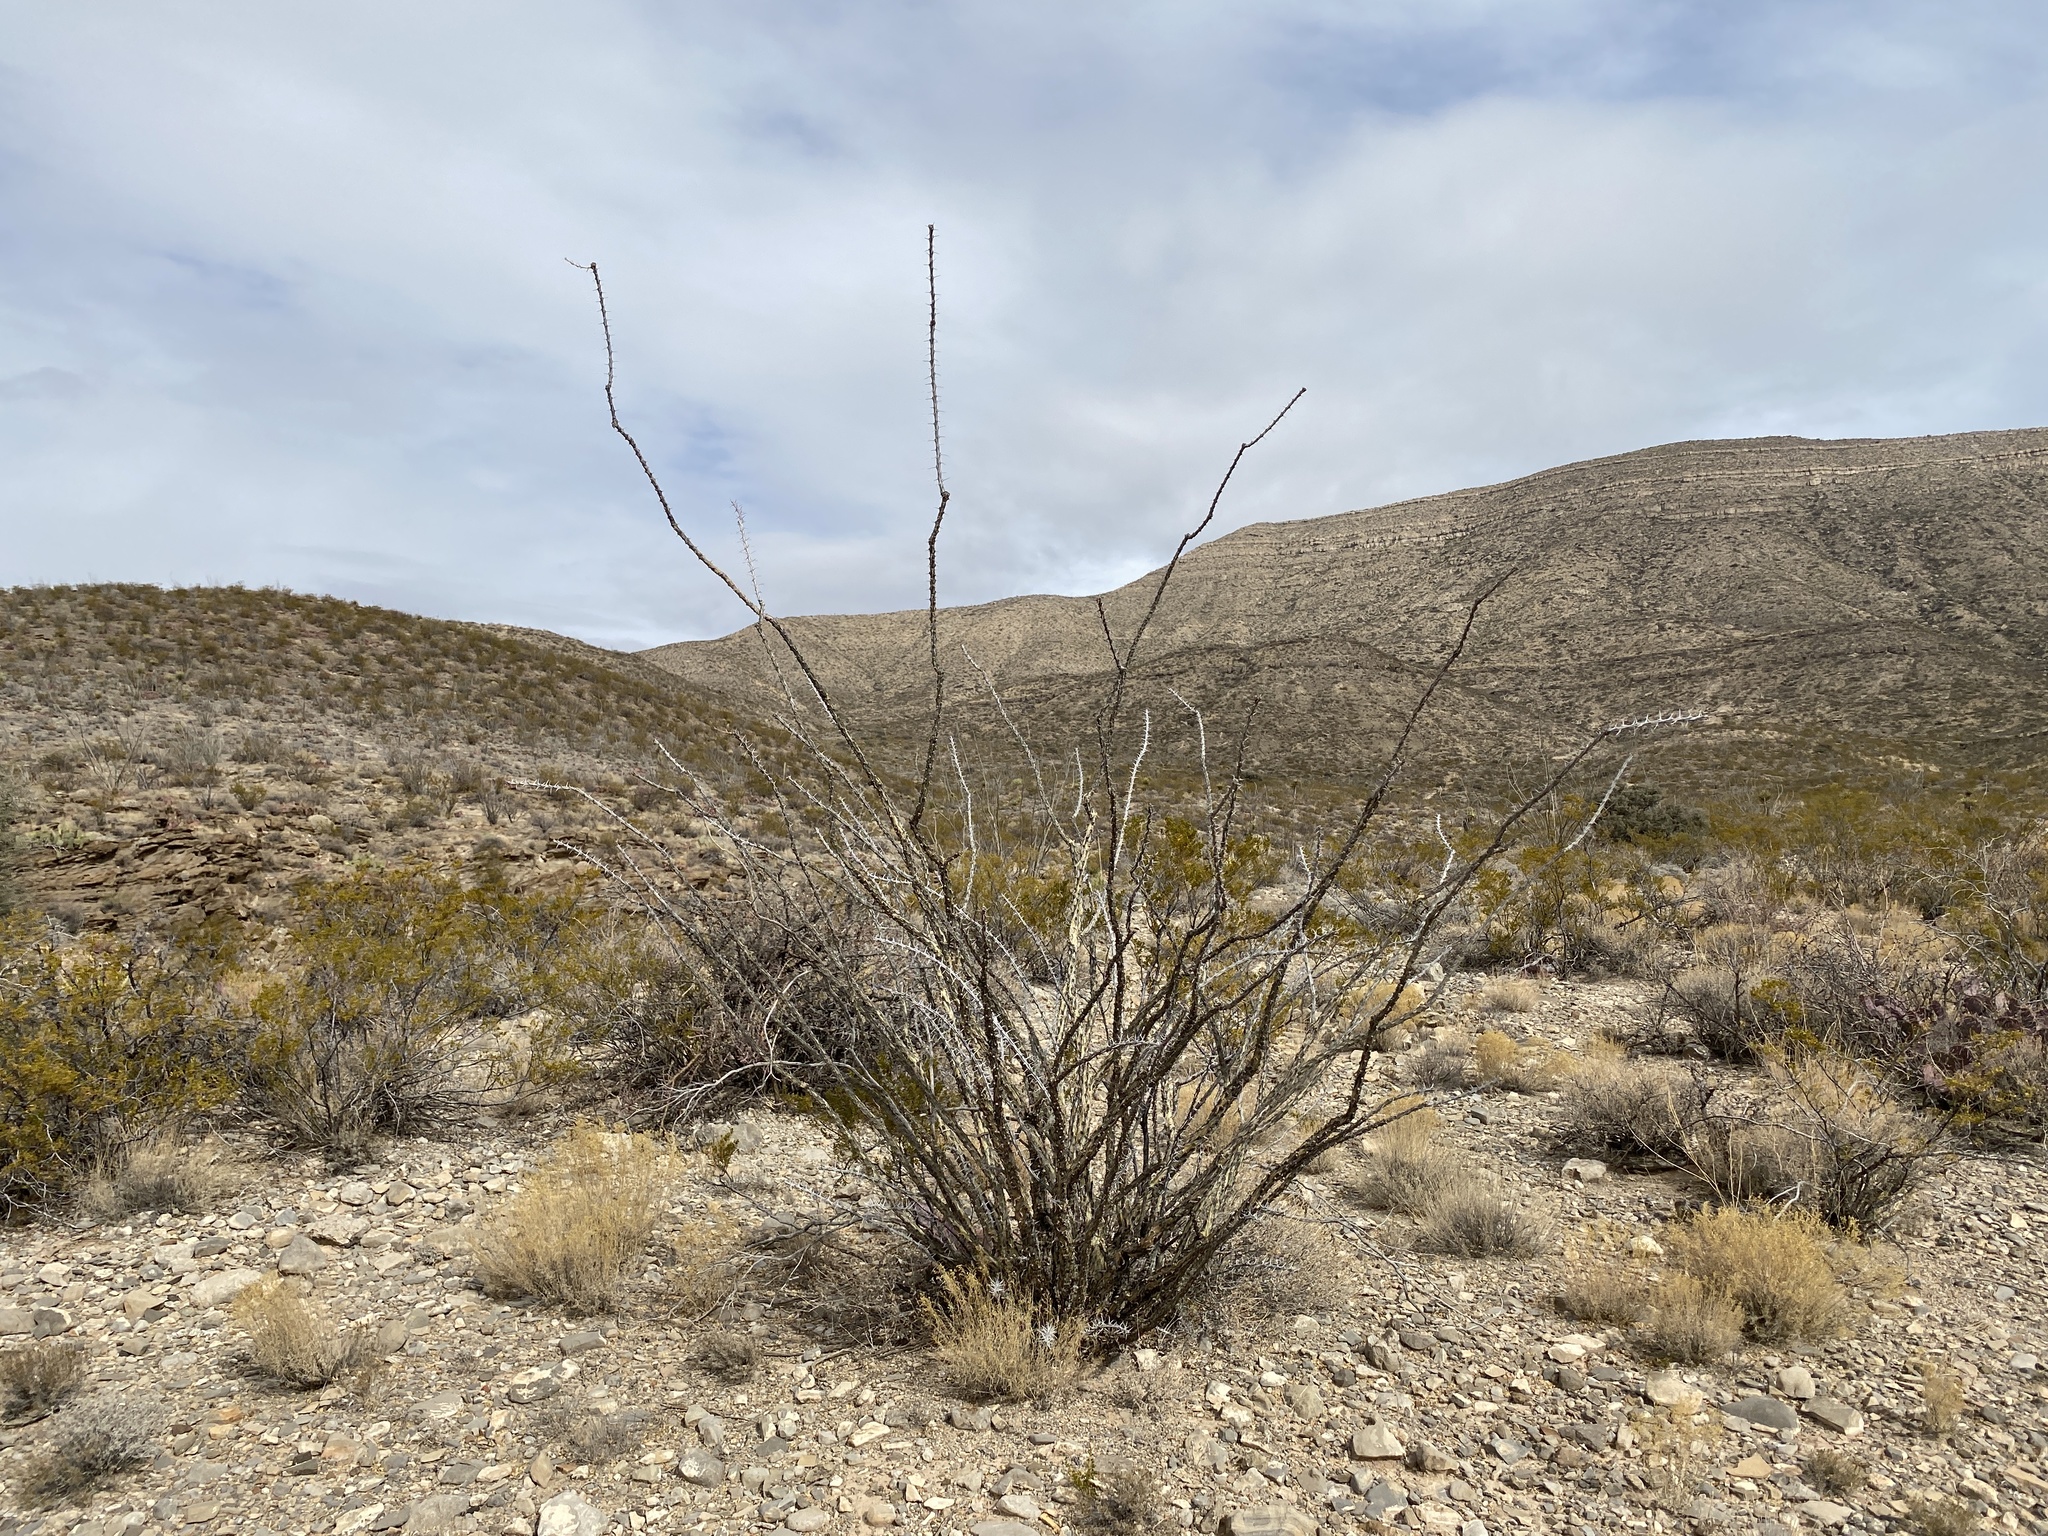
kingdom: Plantae
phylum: Tracheophyta
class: Magnoliopsida
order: Ericales
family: Fouquieriaceae
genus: Fouquieria
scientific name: Fouquieria splendens
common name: Vine-cactus
